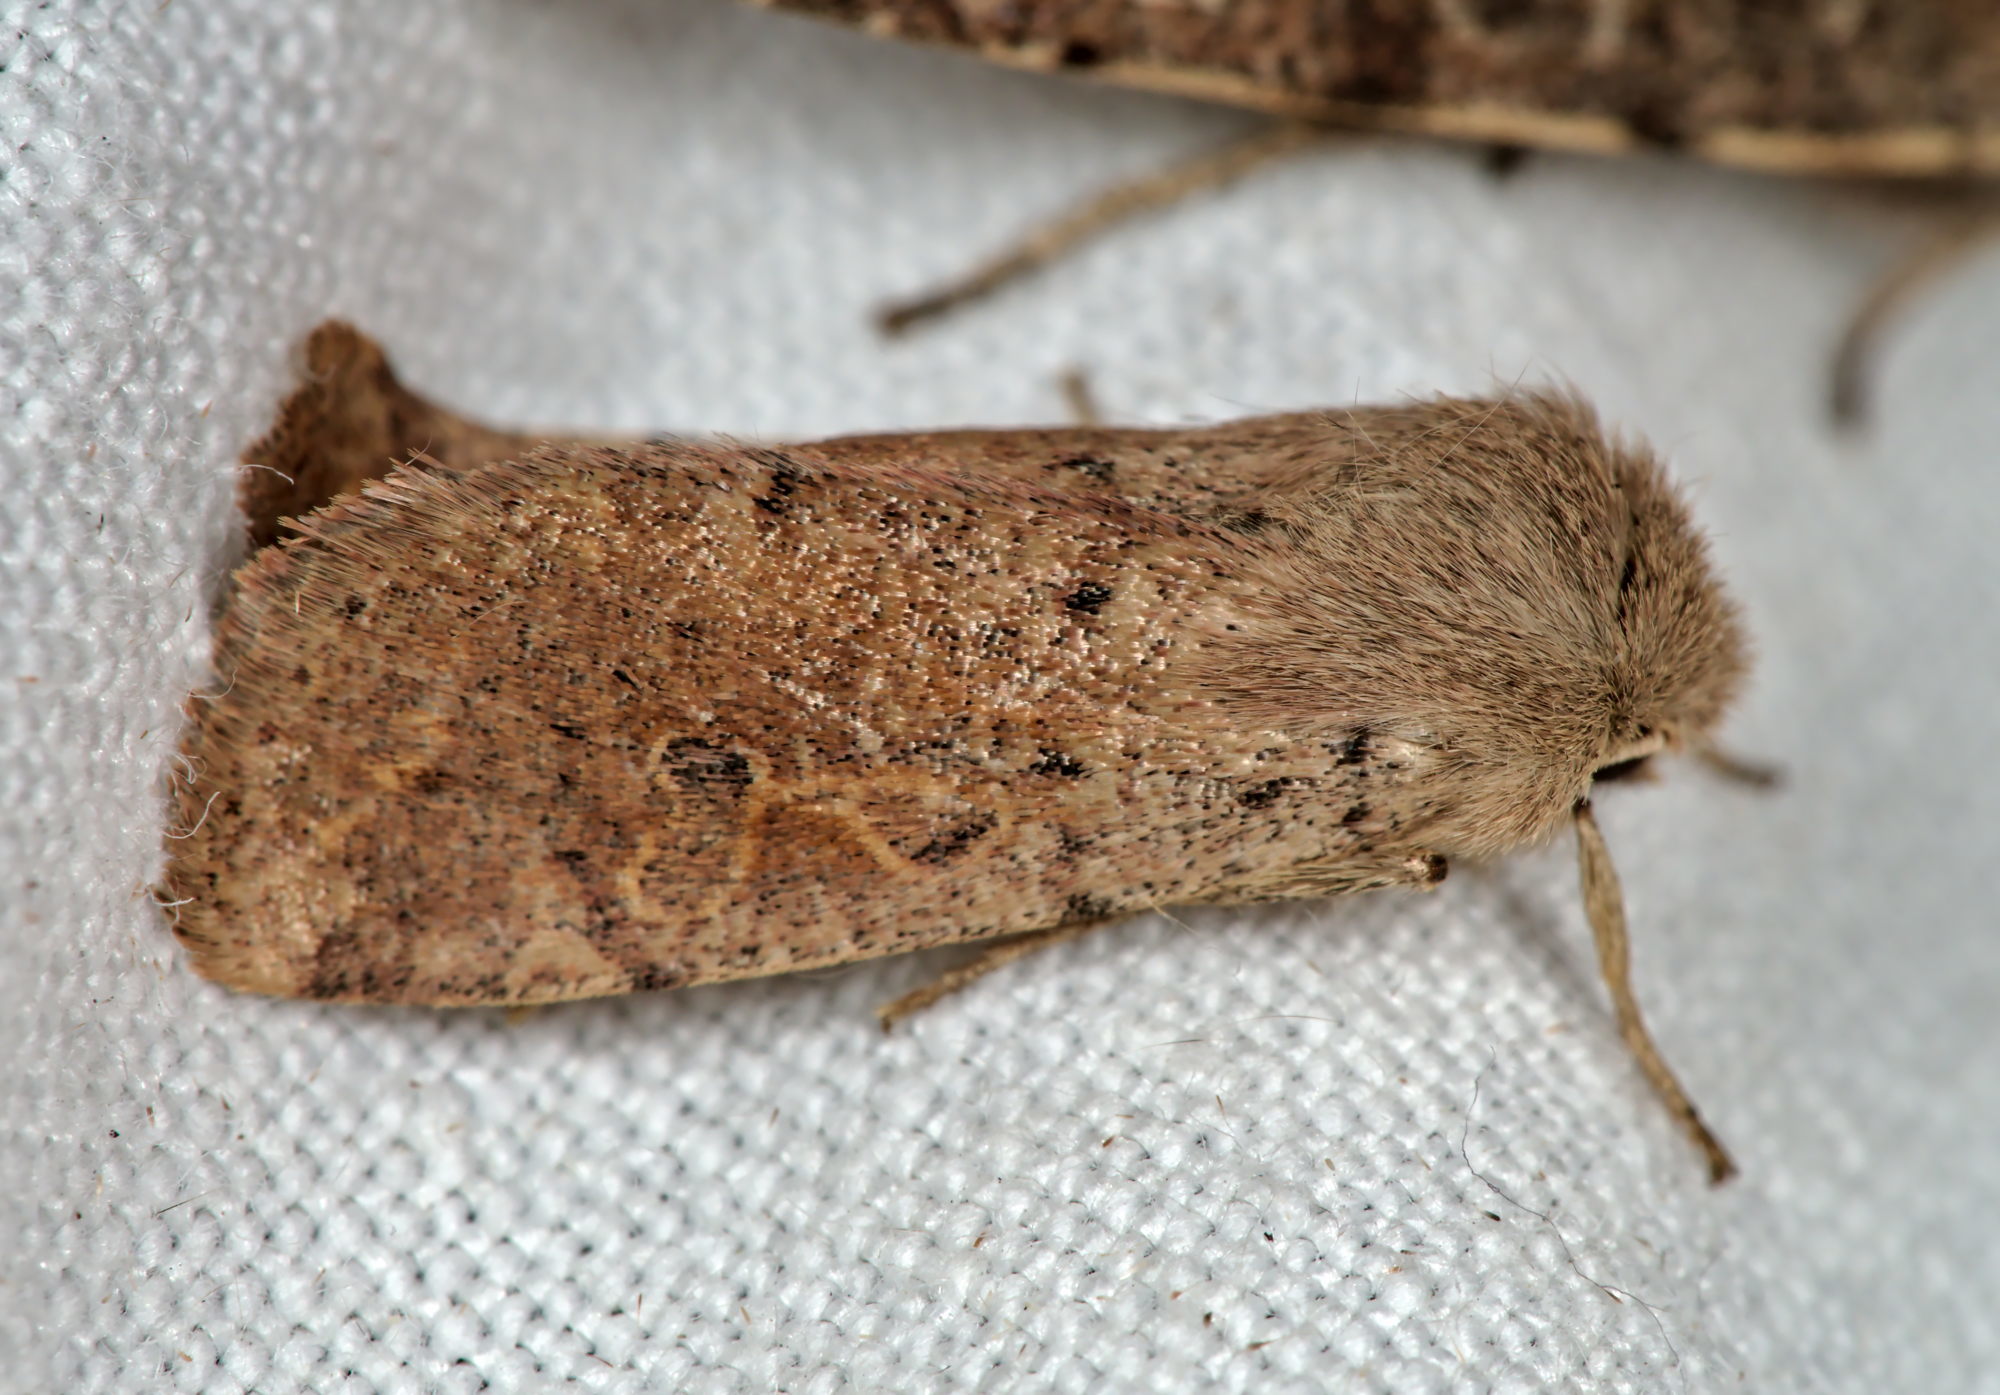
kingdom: Animalia
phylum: Arthropoda
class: Insecta
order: Lepidoptera
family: Noctuidae
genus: Orthosia
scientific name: Orthosia cruda
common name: Small quaker
